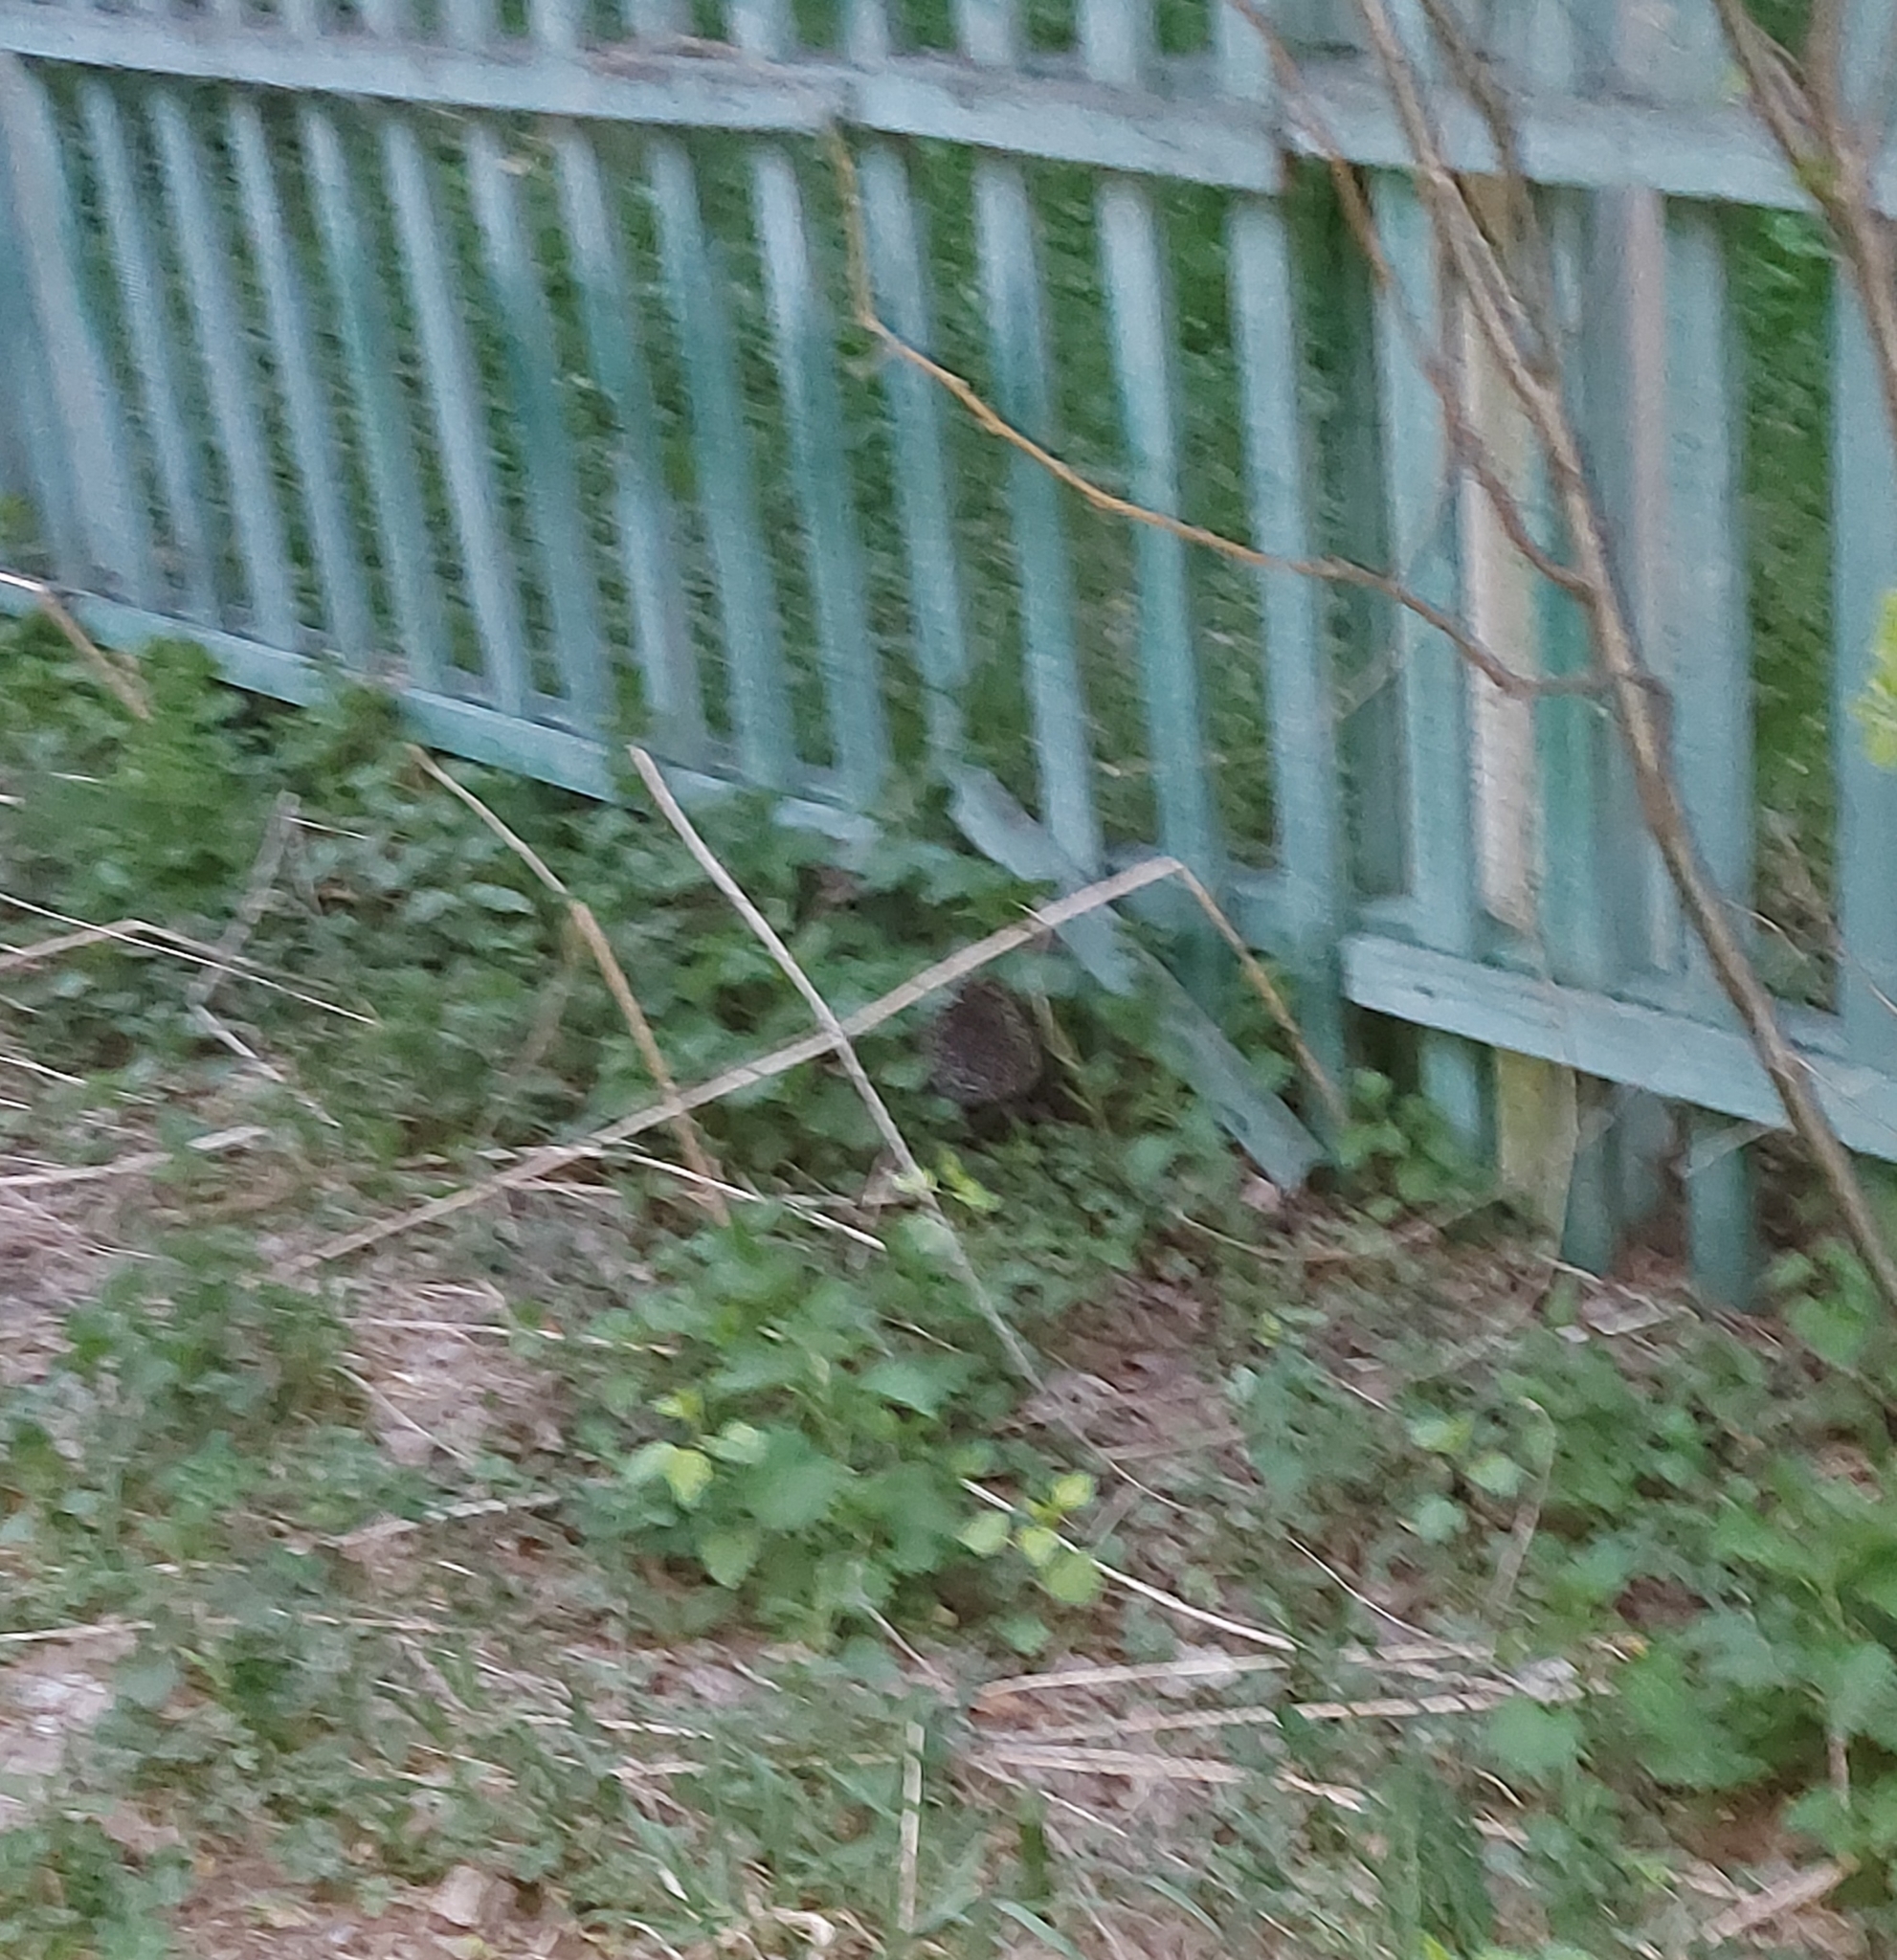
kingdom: Animalia
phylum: Chordata
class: Mammalia
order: Erinaceomorpha
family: Erinaceidae
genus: Erinaceus
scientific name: Erinaceus roumanicus
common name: Northern white-breasted hedgehog
